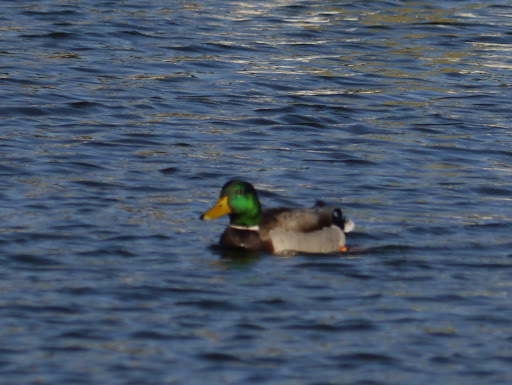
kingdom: Animalia
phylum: Chordata
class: Aves
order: Anseriformes
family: Anatidae
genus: Anas
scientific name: Anas platyrhynchos
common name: Mallard
